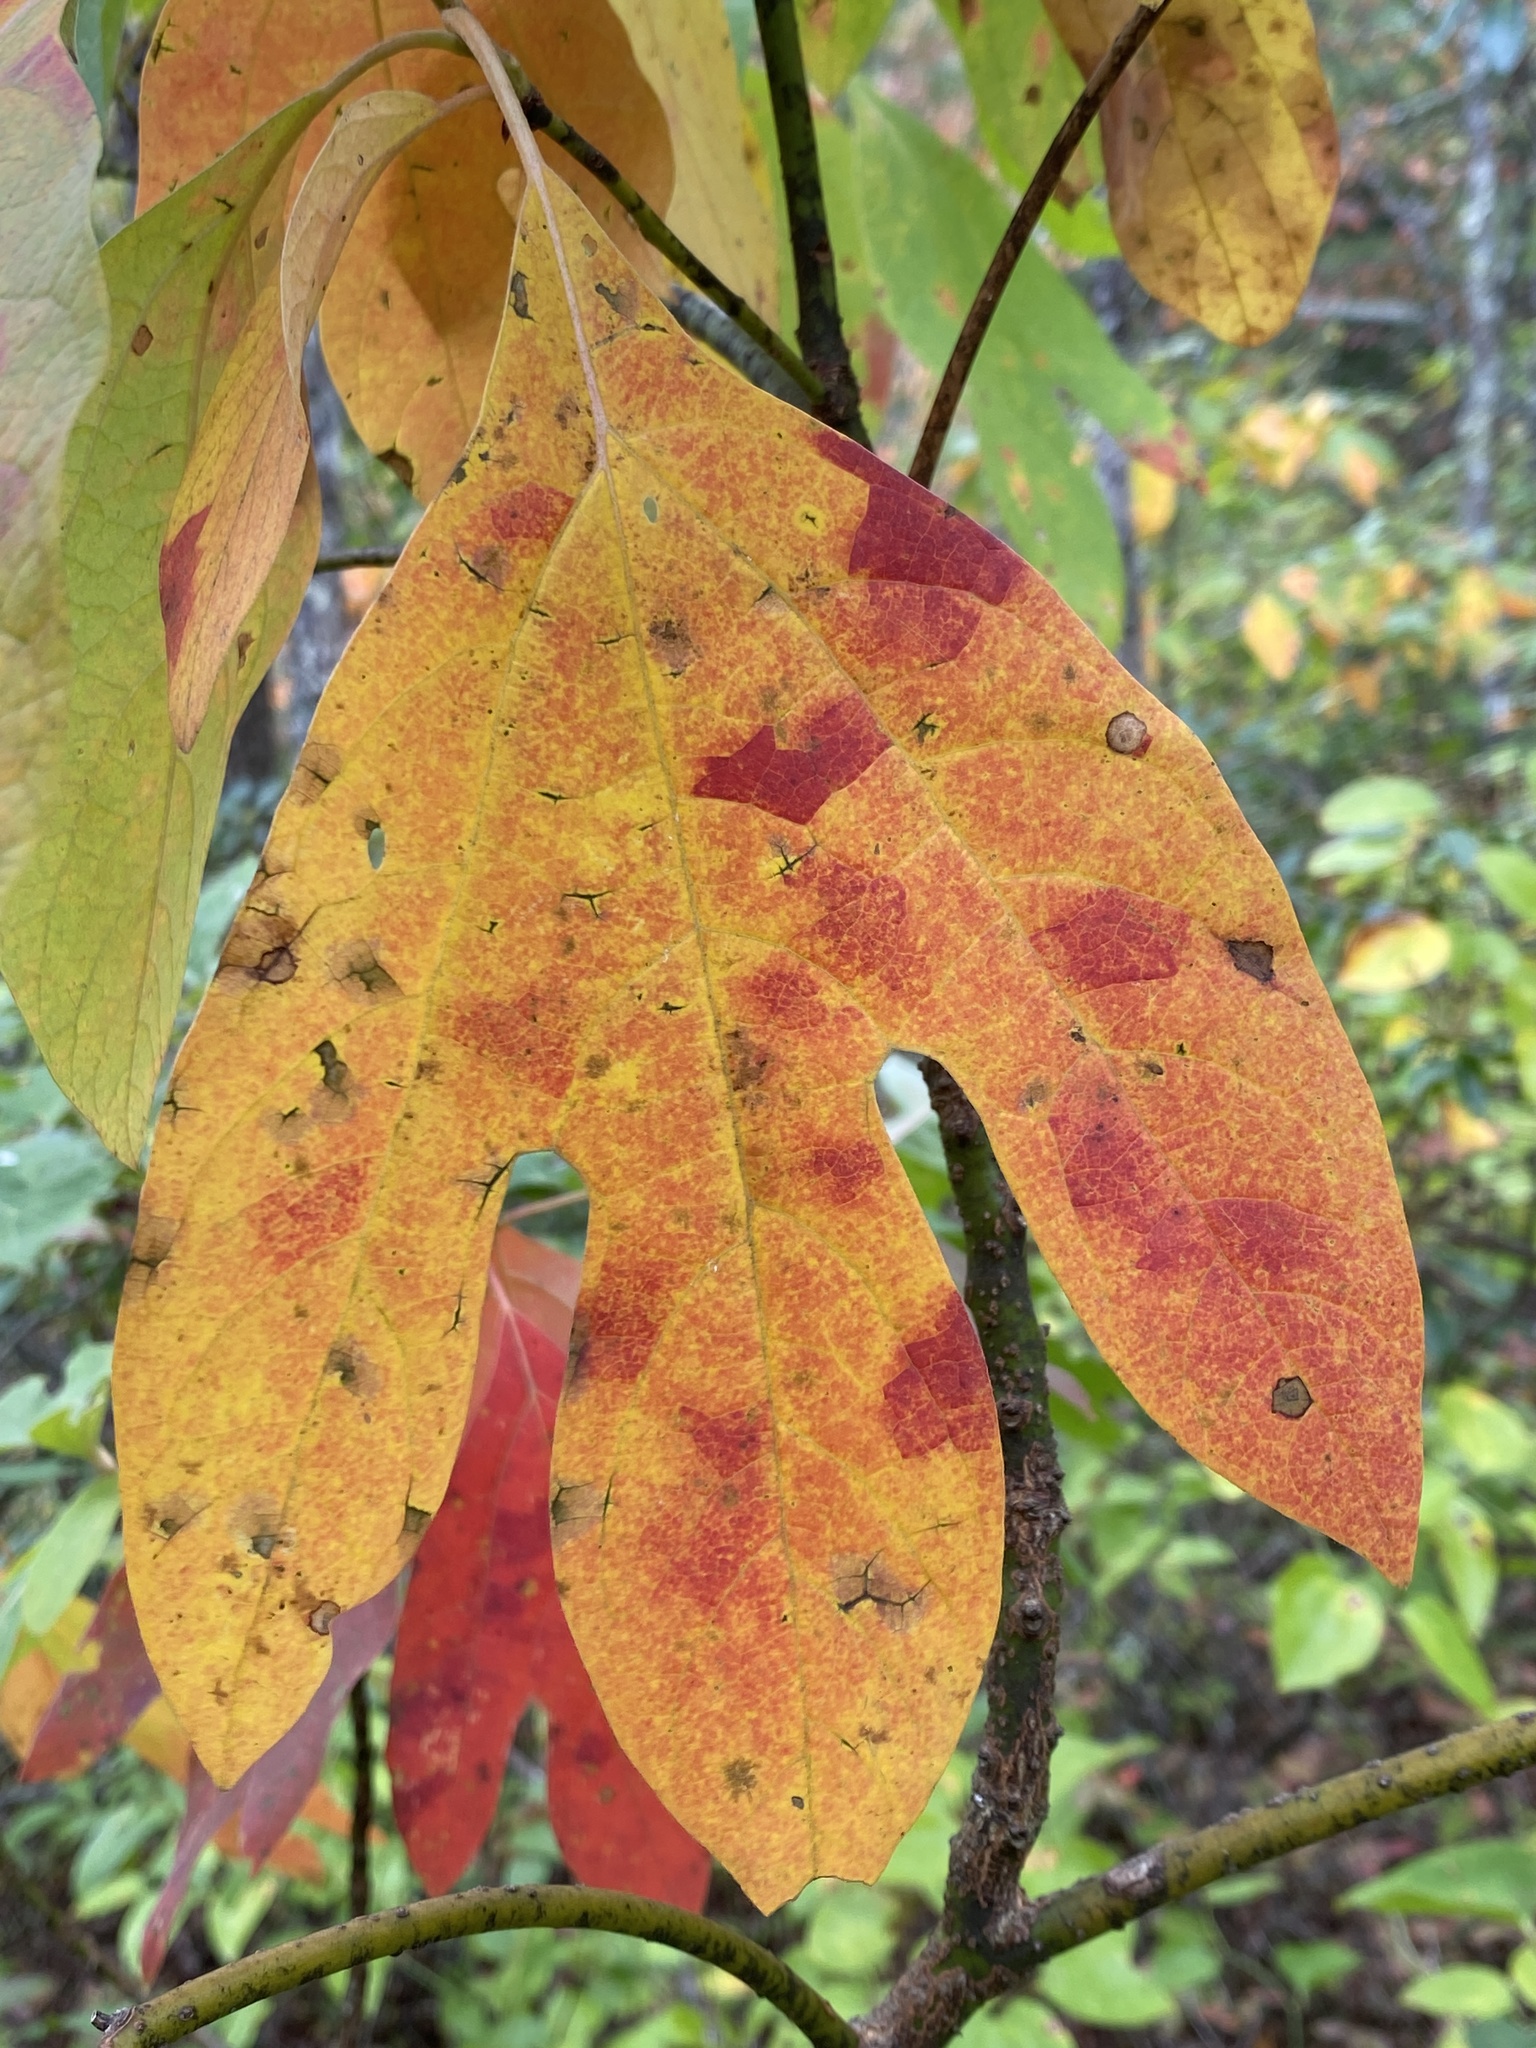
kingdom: Plantae
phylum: Tracheophyta
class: Magnoliopsida
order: Laurales
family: Lauraceae
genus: Sassafras
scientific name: Sassafras albidum
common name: Sassafras
